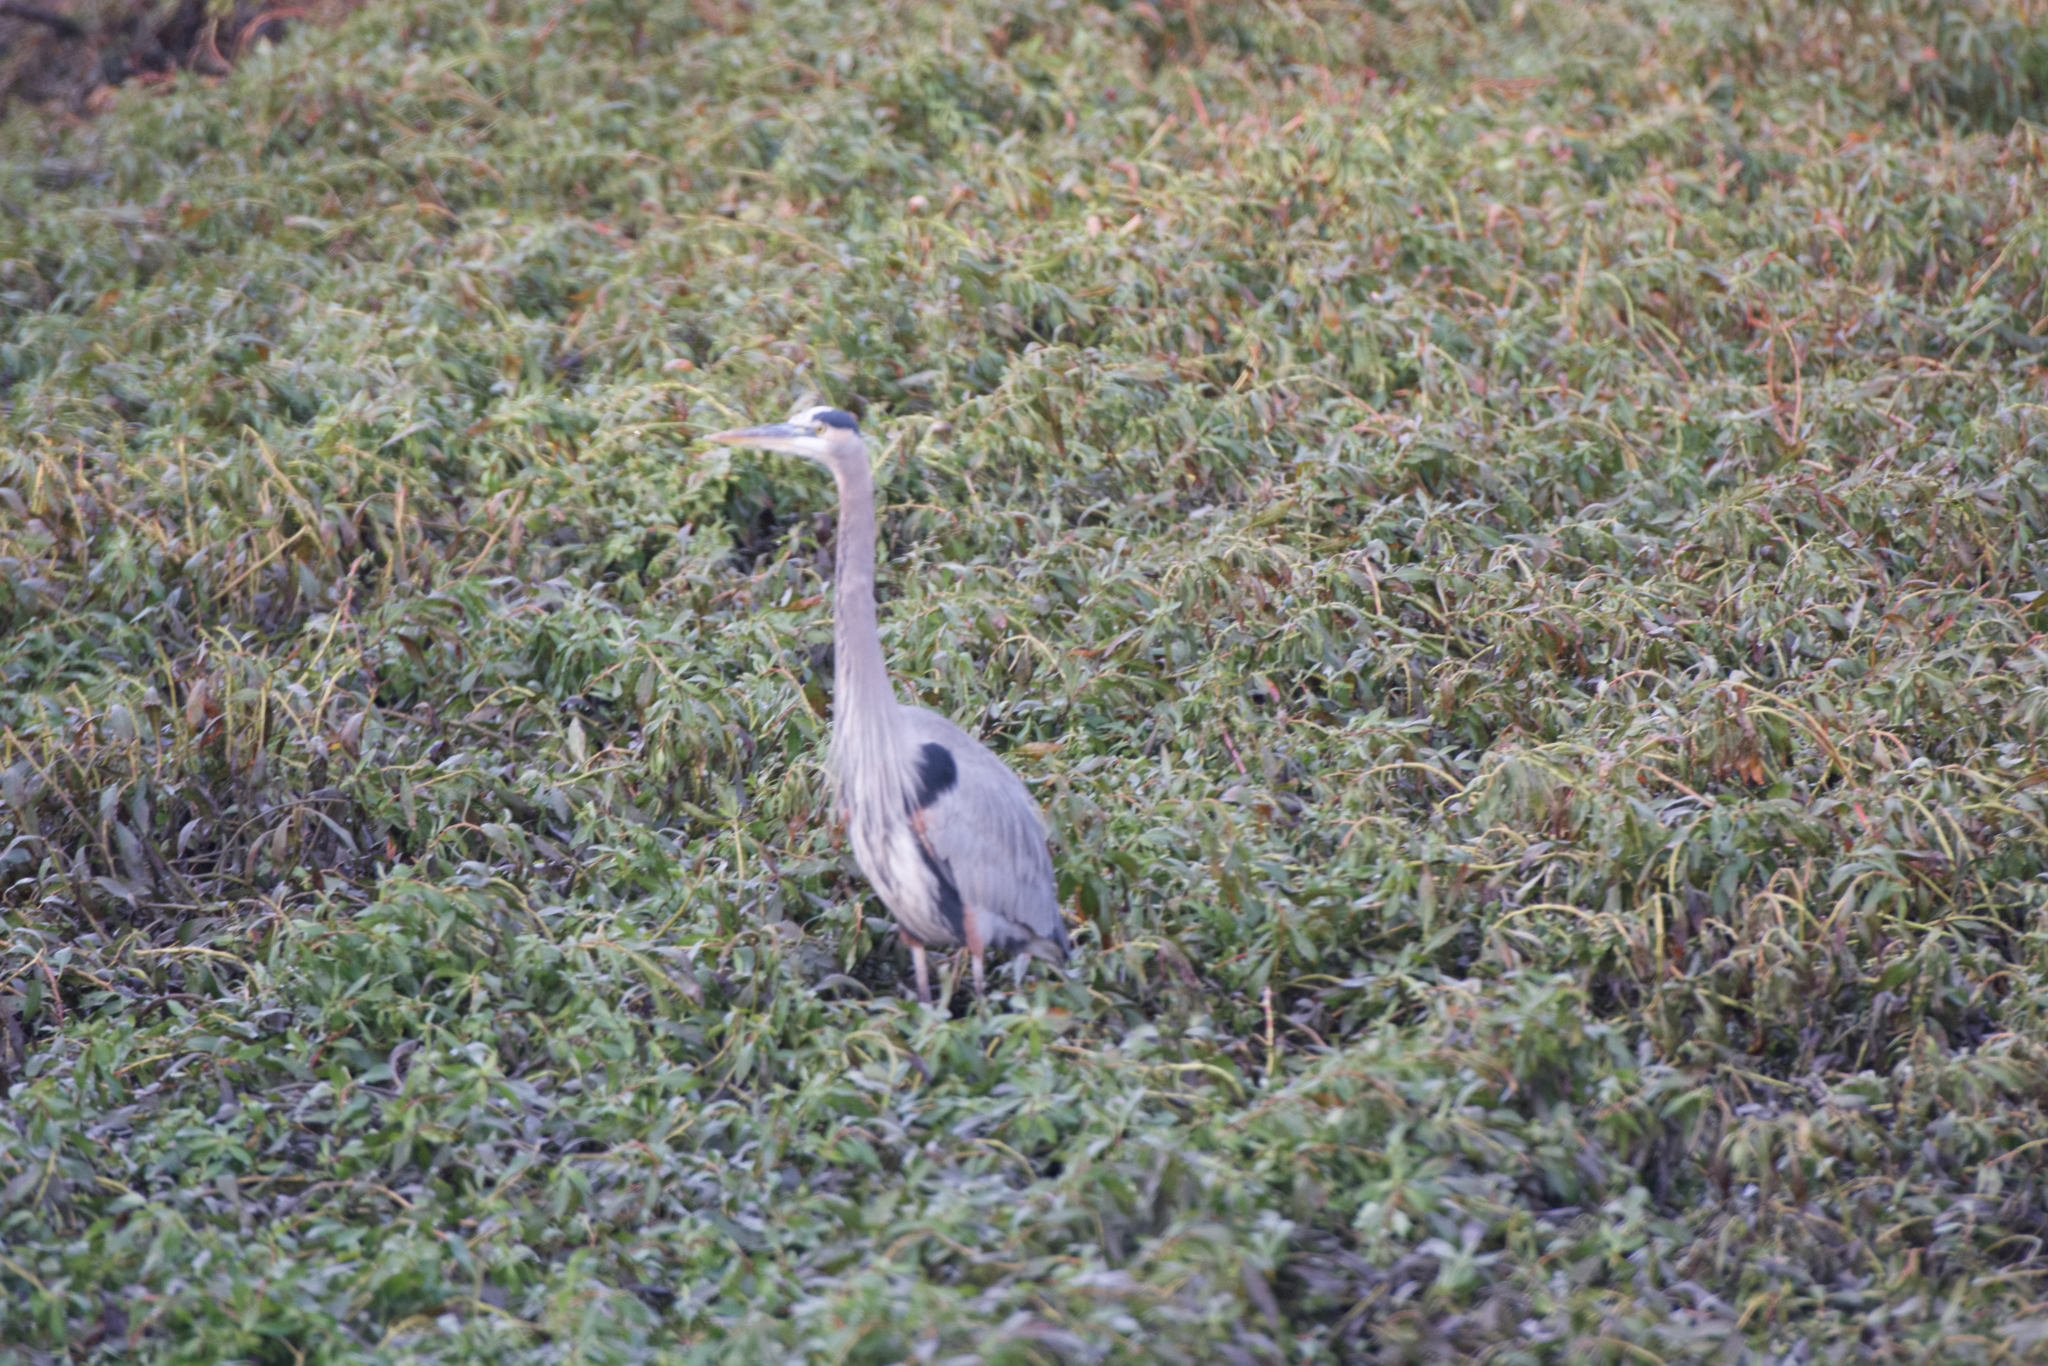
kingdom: Animalia
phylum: Chordata
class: Aves
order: Pelecaniformes
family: Ardeidae
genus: Ardea
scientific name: Ardea herodias
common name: Great blue heron
